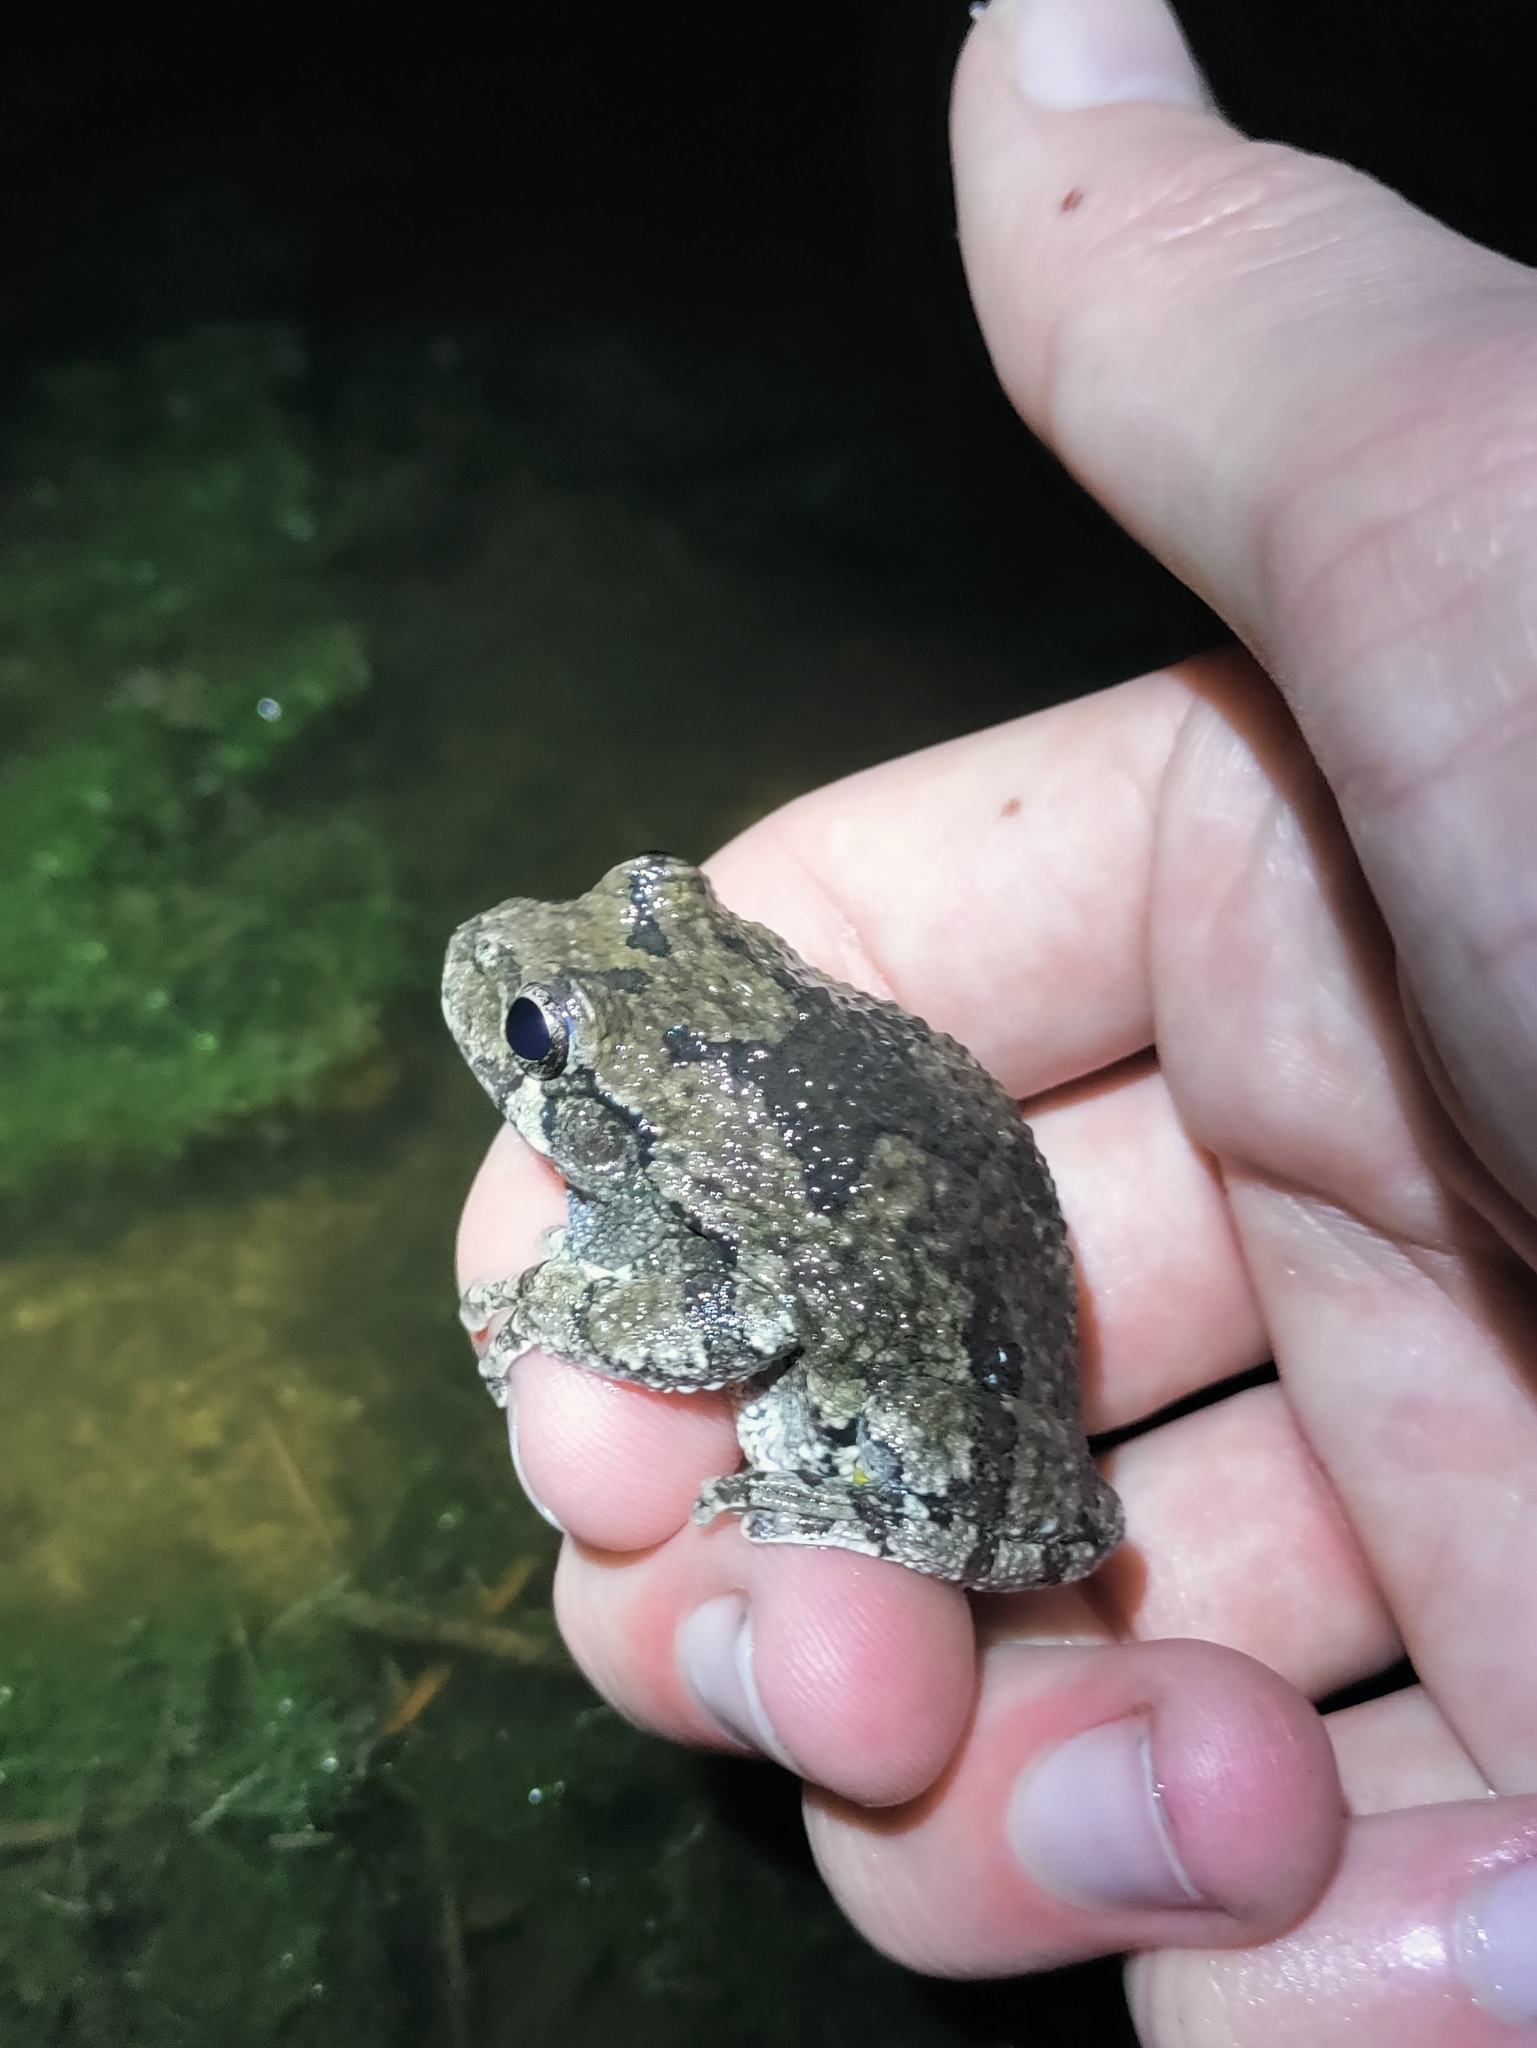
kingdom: Animalia
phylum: Chordata
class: Amphibia
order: Anura
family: Hylidae
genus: Dryophytes
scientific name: Dryophytes versicolor
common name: Gray treefrog
